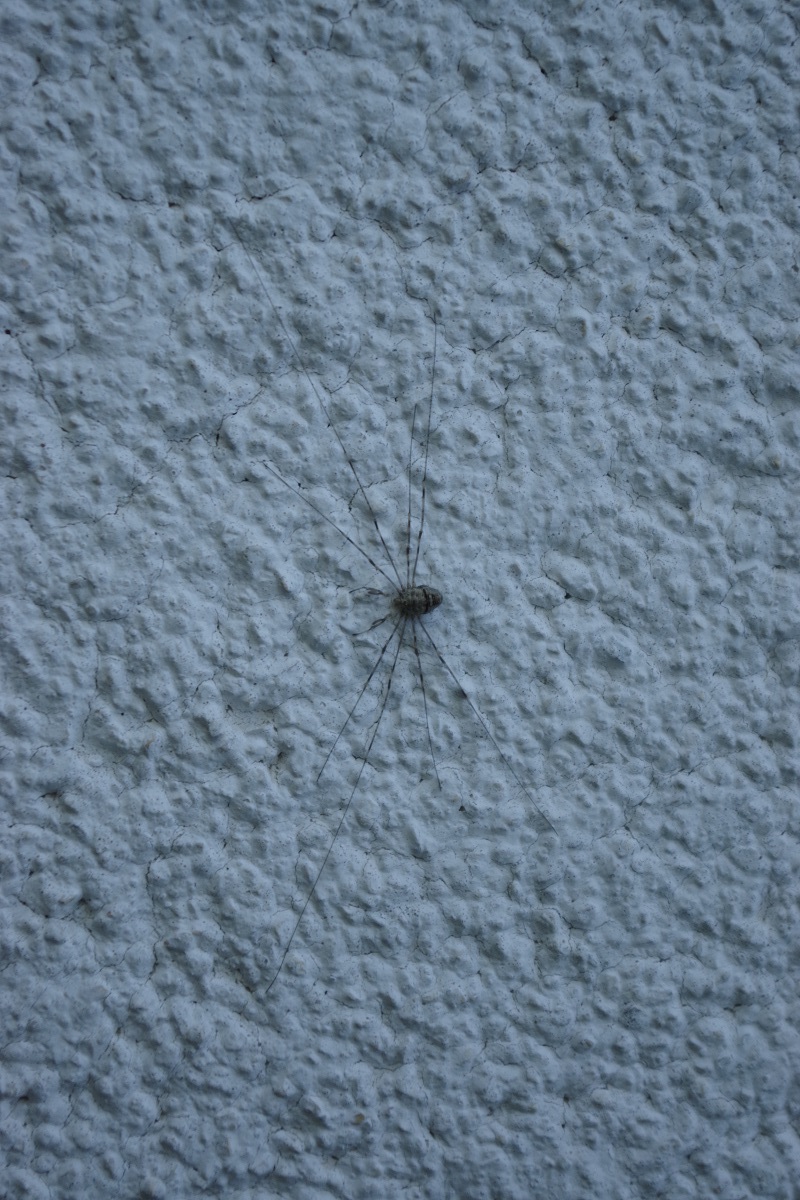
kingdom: Animalia
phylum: Arthropoda
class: Arachnida
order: Opiliones
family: Phalangiidae
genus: Dicranopalpus
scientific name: Dicranopalpus ramosus
